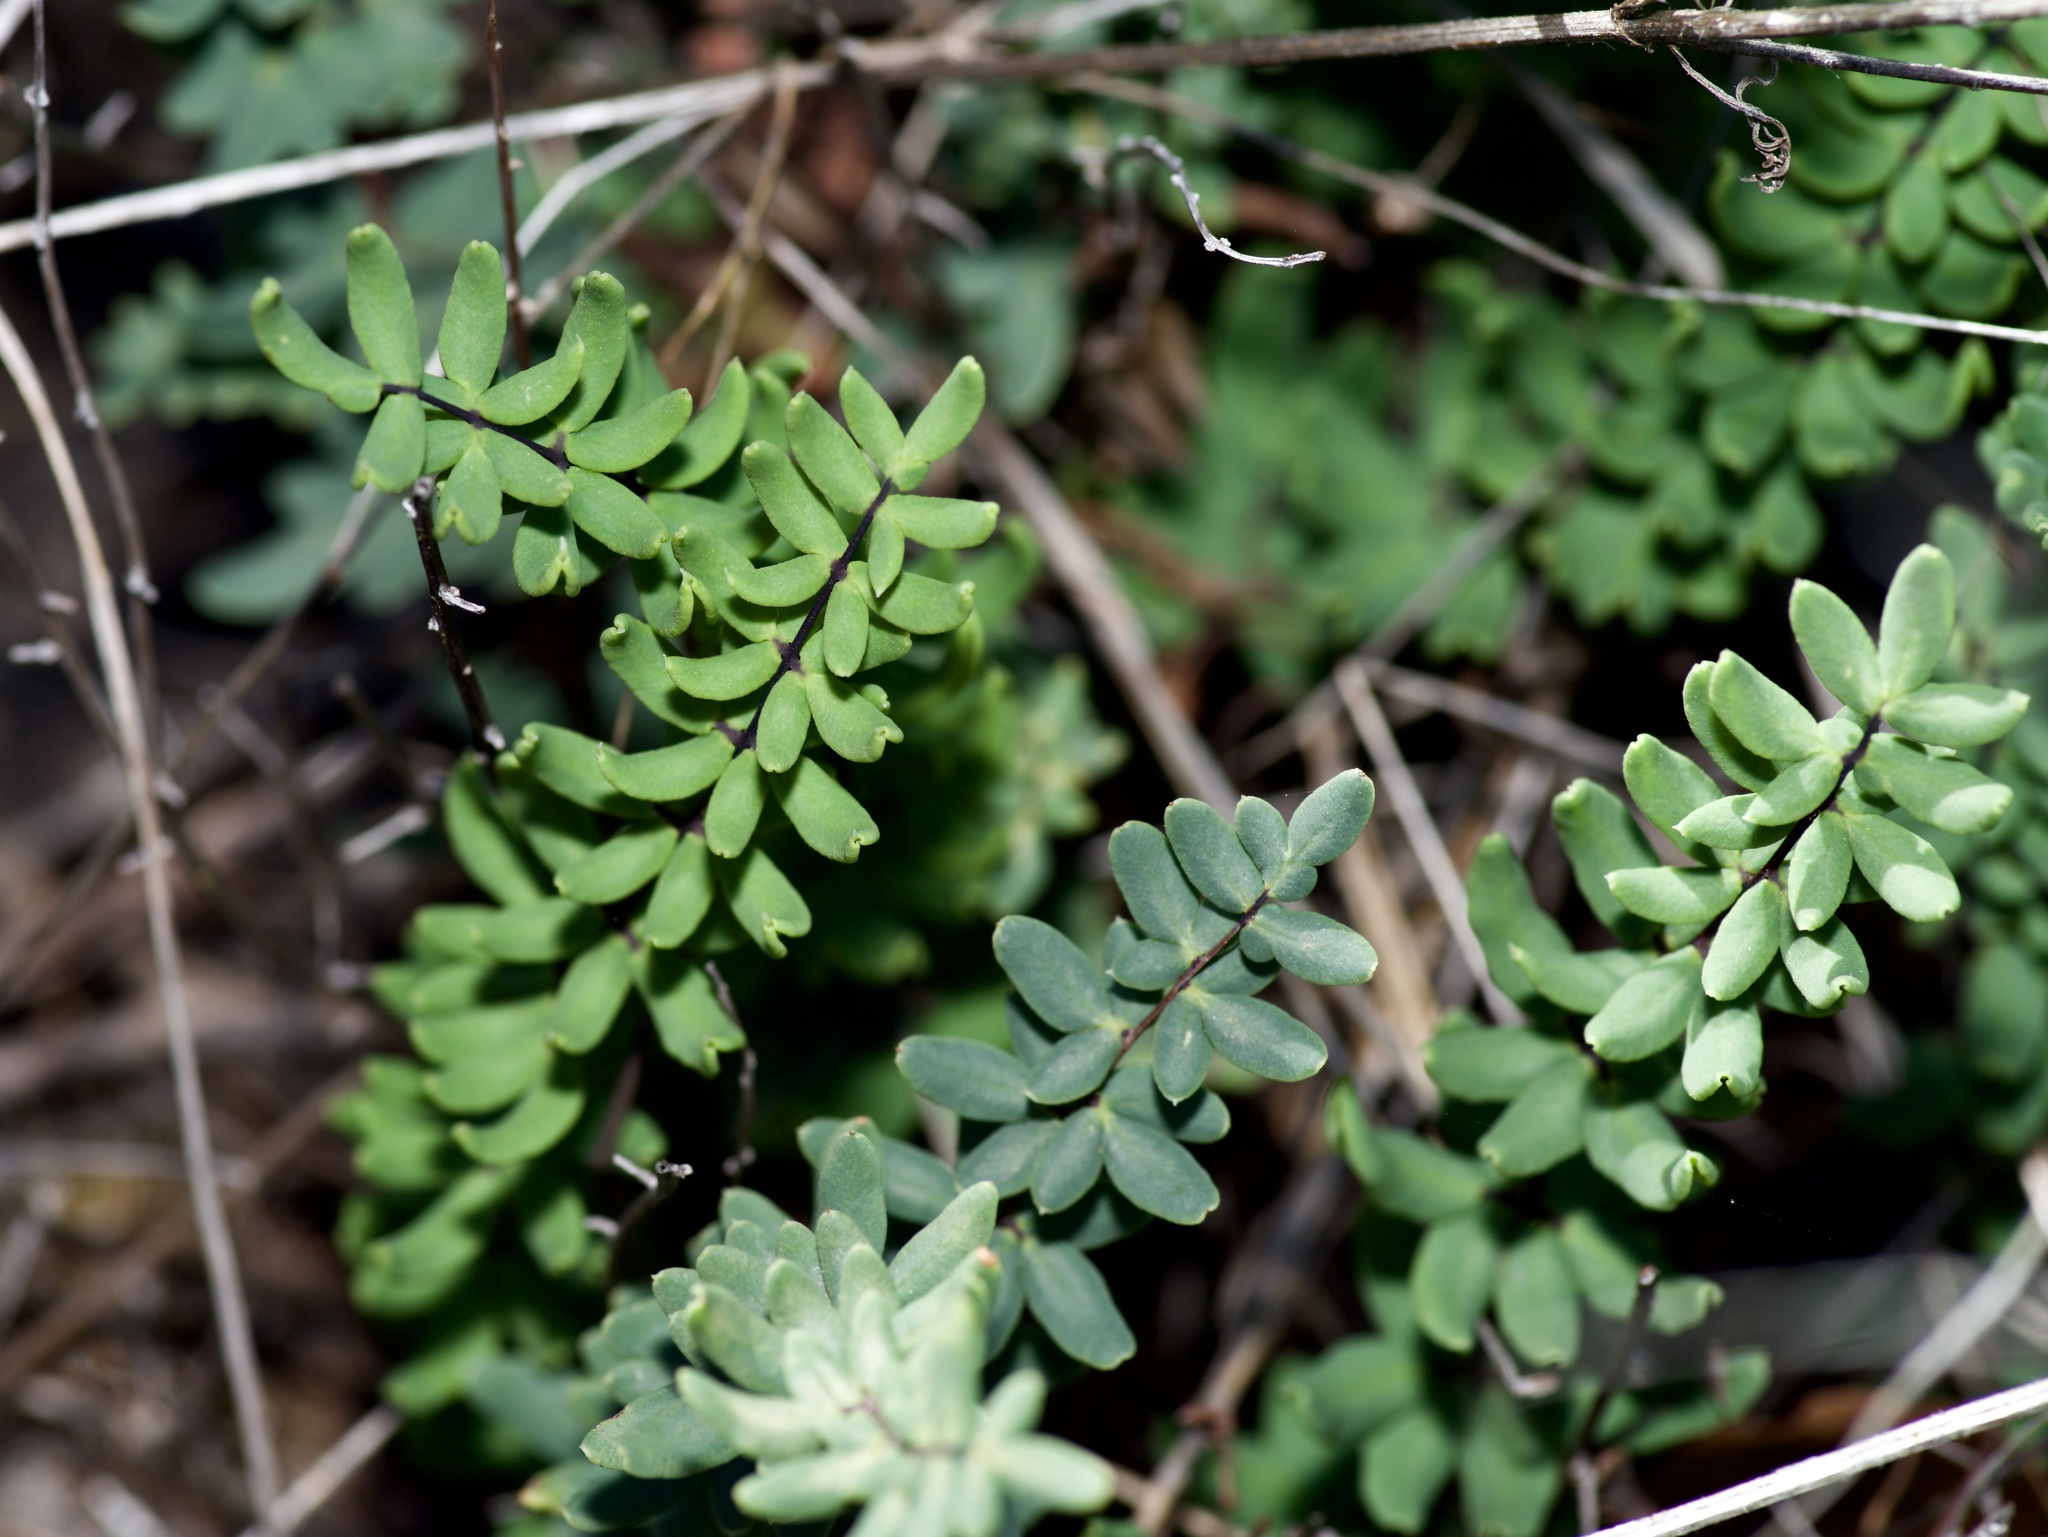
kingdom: Plantae
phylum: Tracheophyta
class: Polypodiopsida
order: Polypodiales
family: Pteridaceae
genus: Pellaea
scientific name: Pellaea wrightiana
